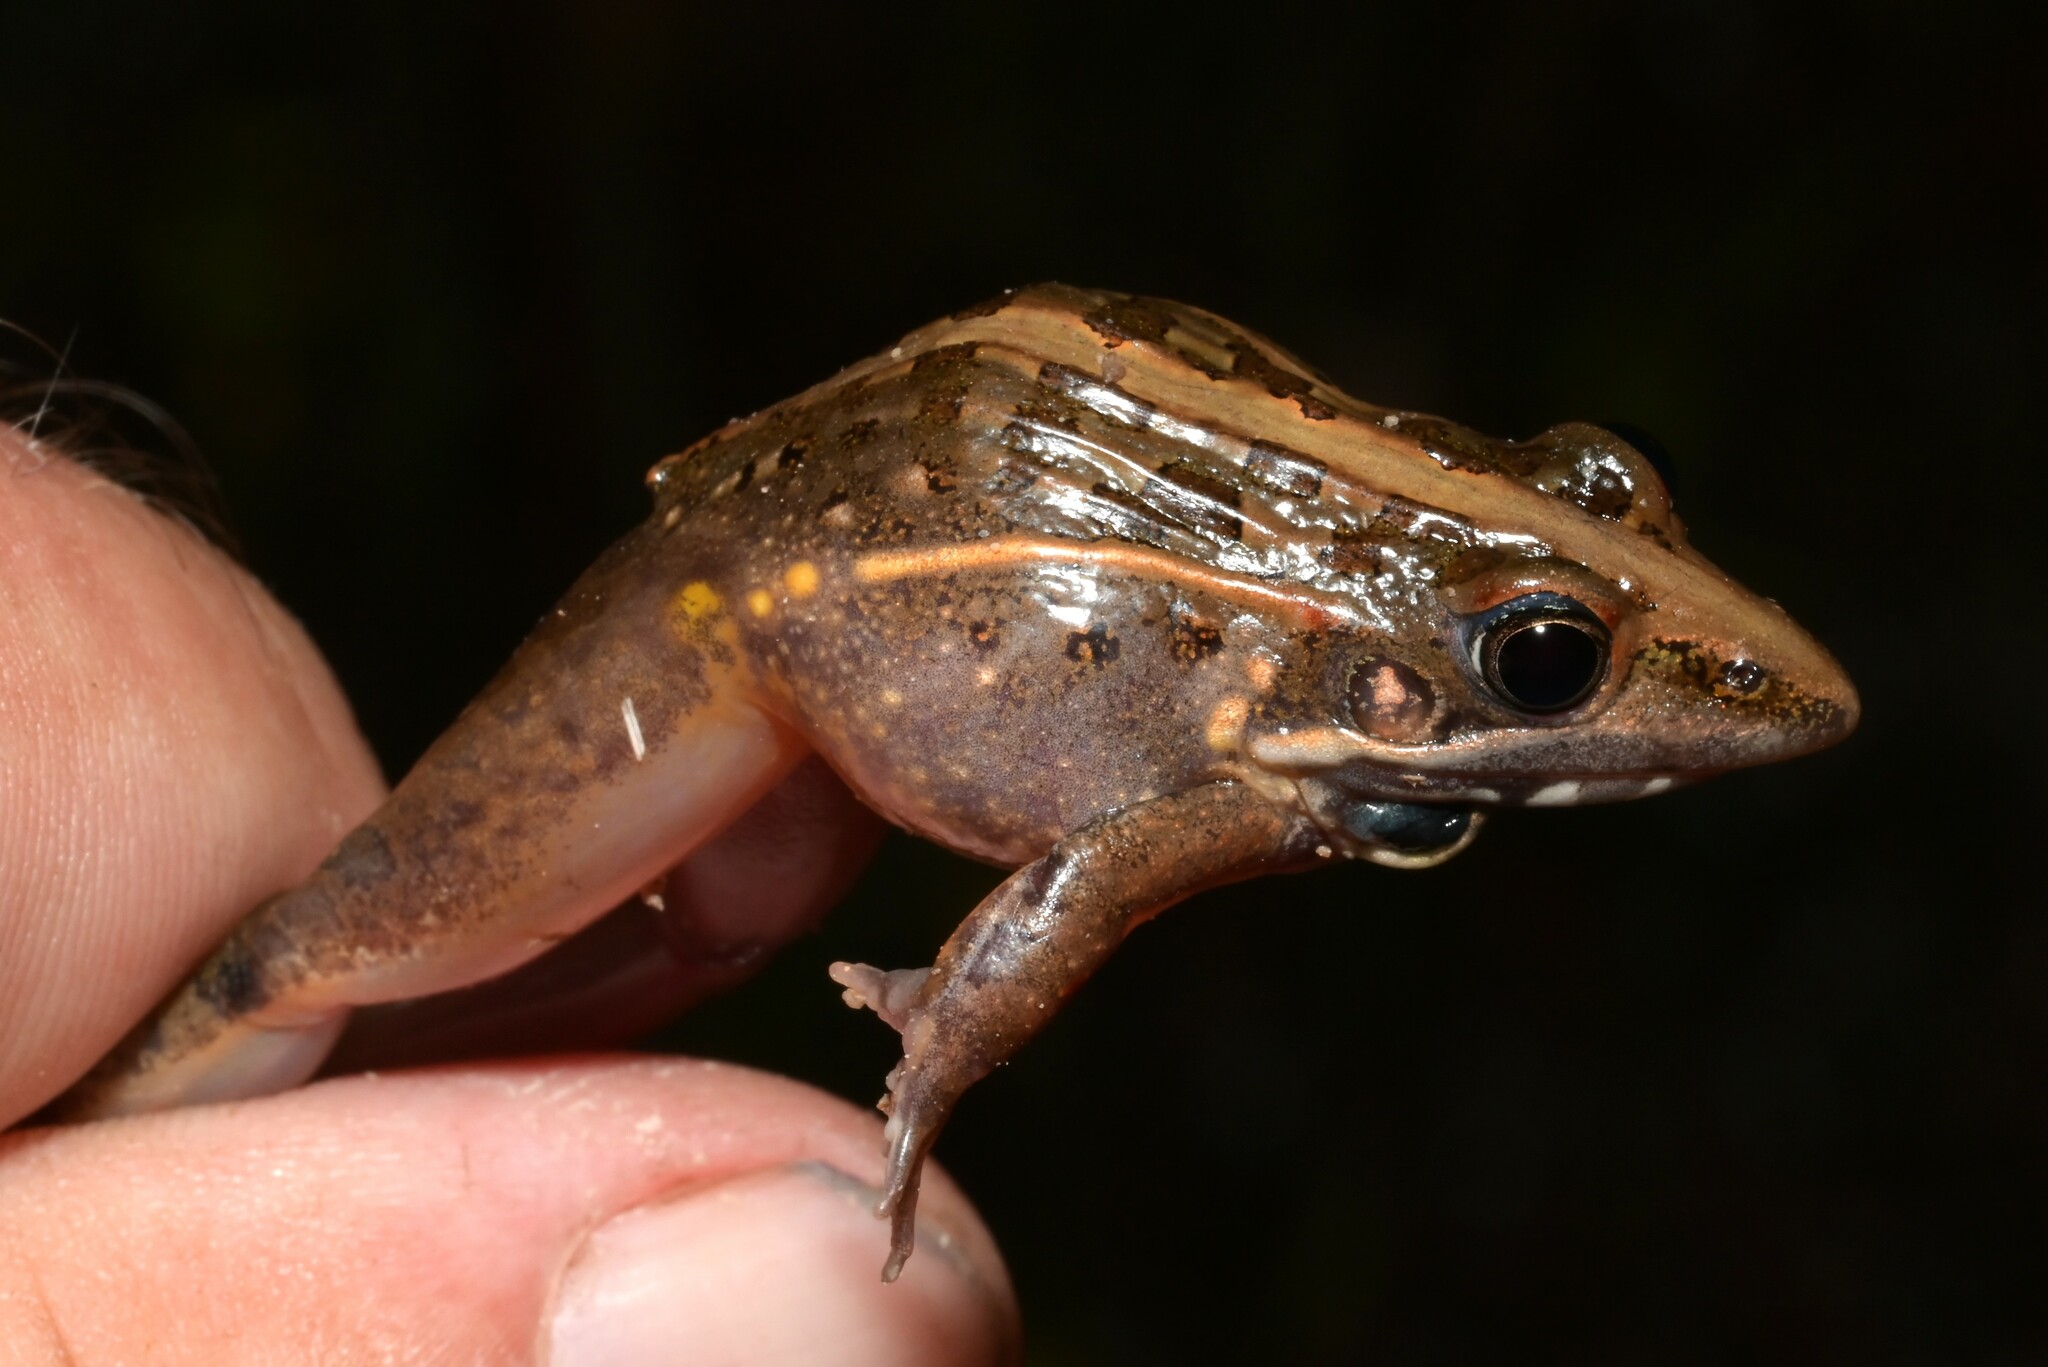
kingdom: Animalia
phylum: Chordata
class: Amphibia
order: Anura
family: Ptychadenidae
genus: Ptychadena
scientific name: Ptychadena uzungwensis
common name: Udzungwa ridged frog
